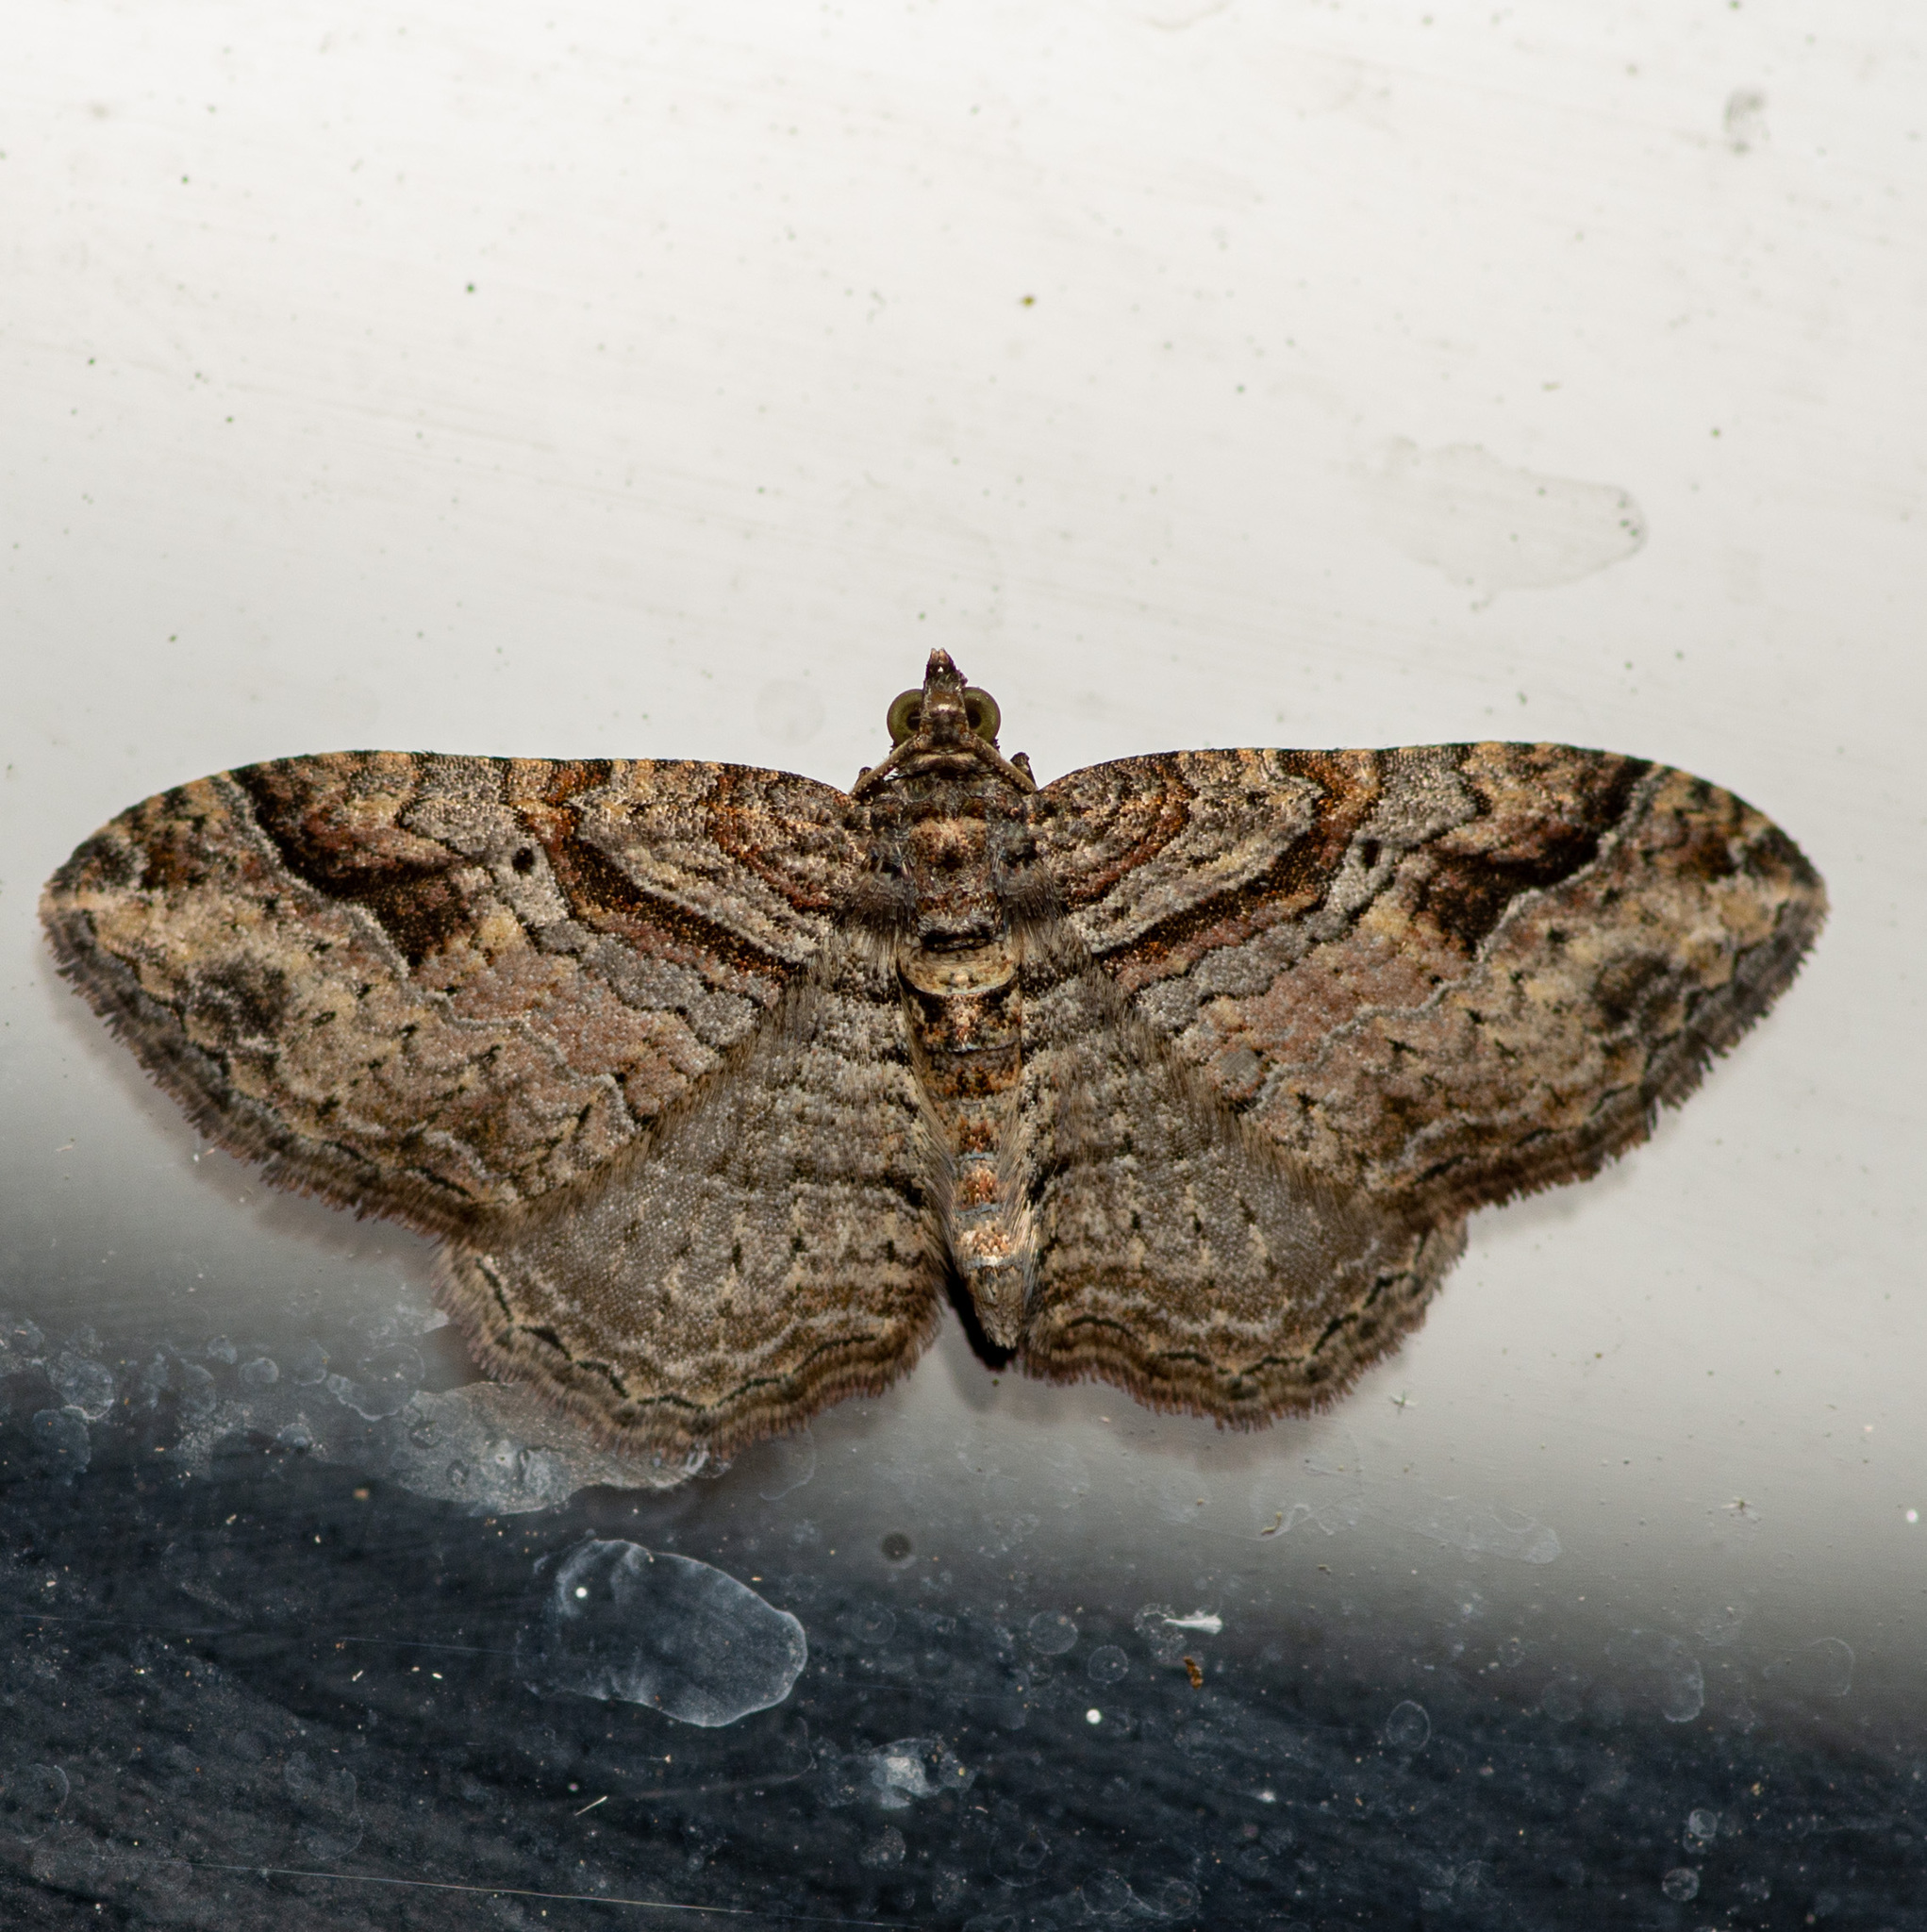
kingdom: Animalia
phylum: Arthropoda
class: Insecta
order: Lepidoptera
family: Geometridae
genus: Costaconvexa
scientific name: Costaconvexa centrostrigaria
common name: Bent-line carpet
